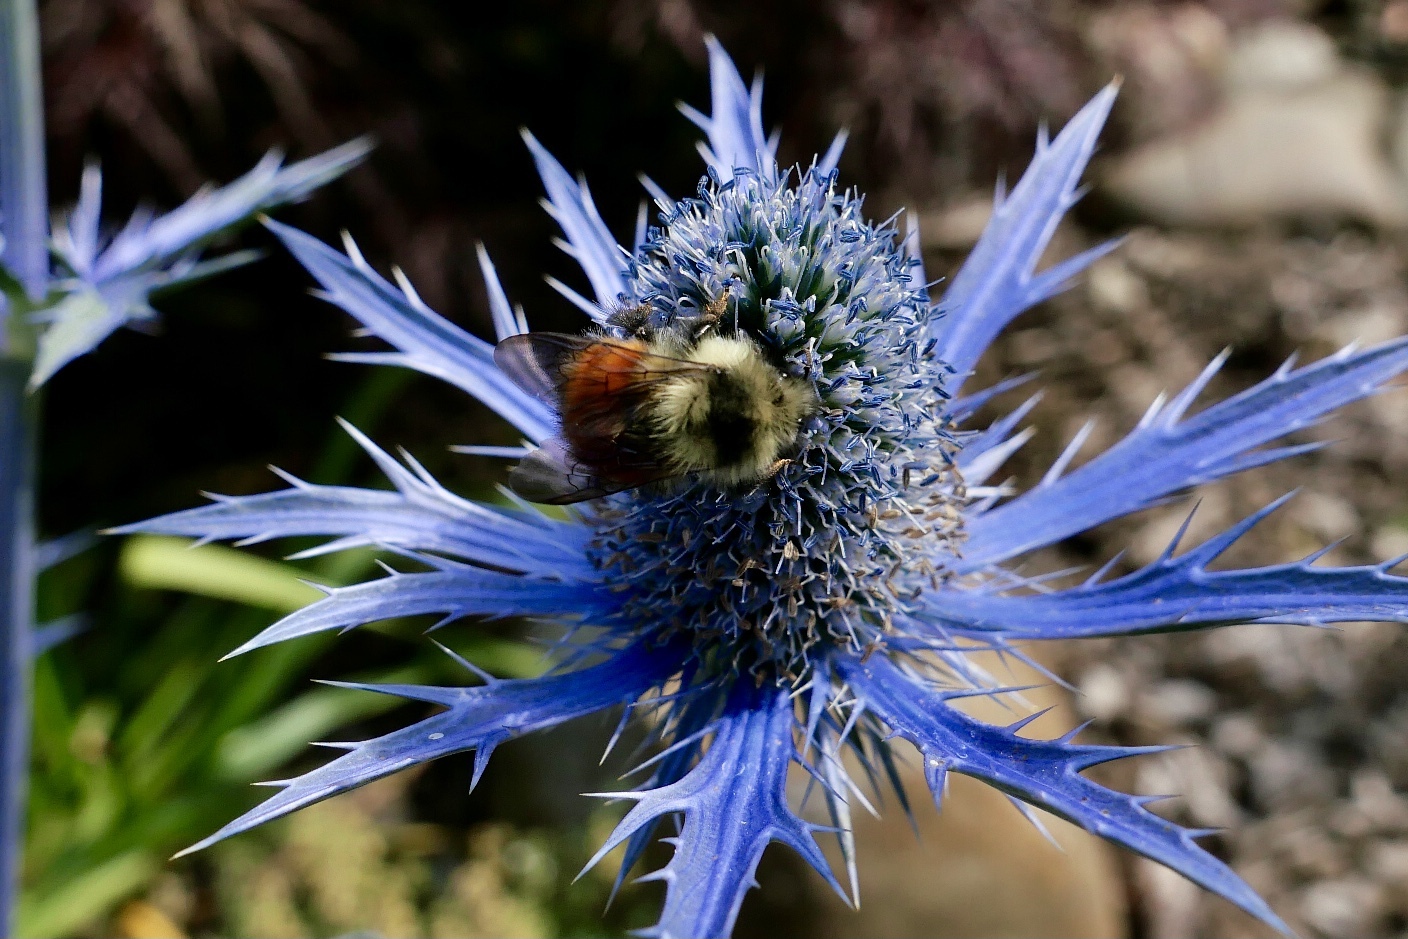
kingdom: Animalia
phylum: Arthropoda
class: Insecta
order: Hymenoptera
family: Apidae
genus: Bombus
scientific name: Bombus melanopygus
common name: Black tail bumble bee
